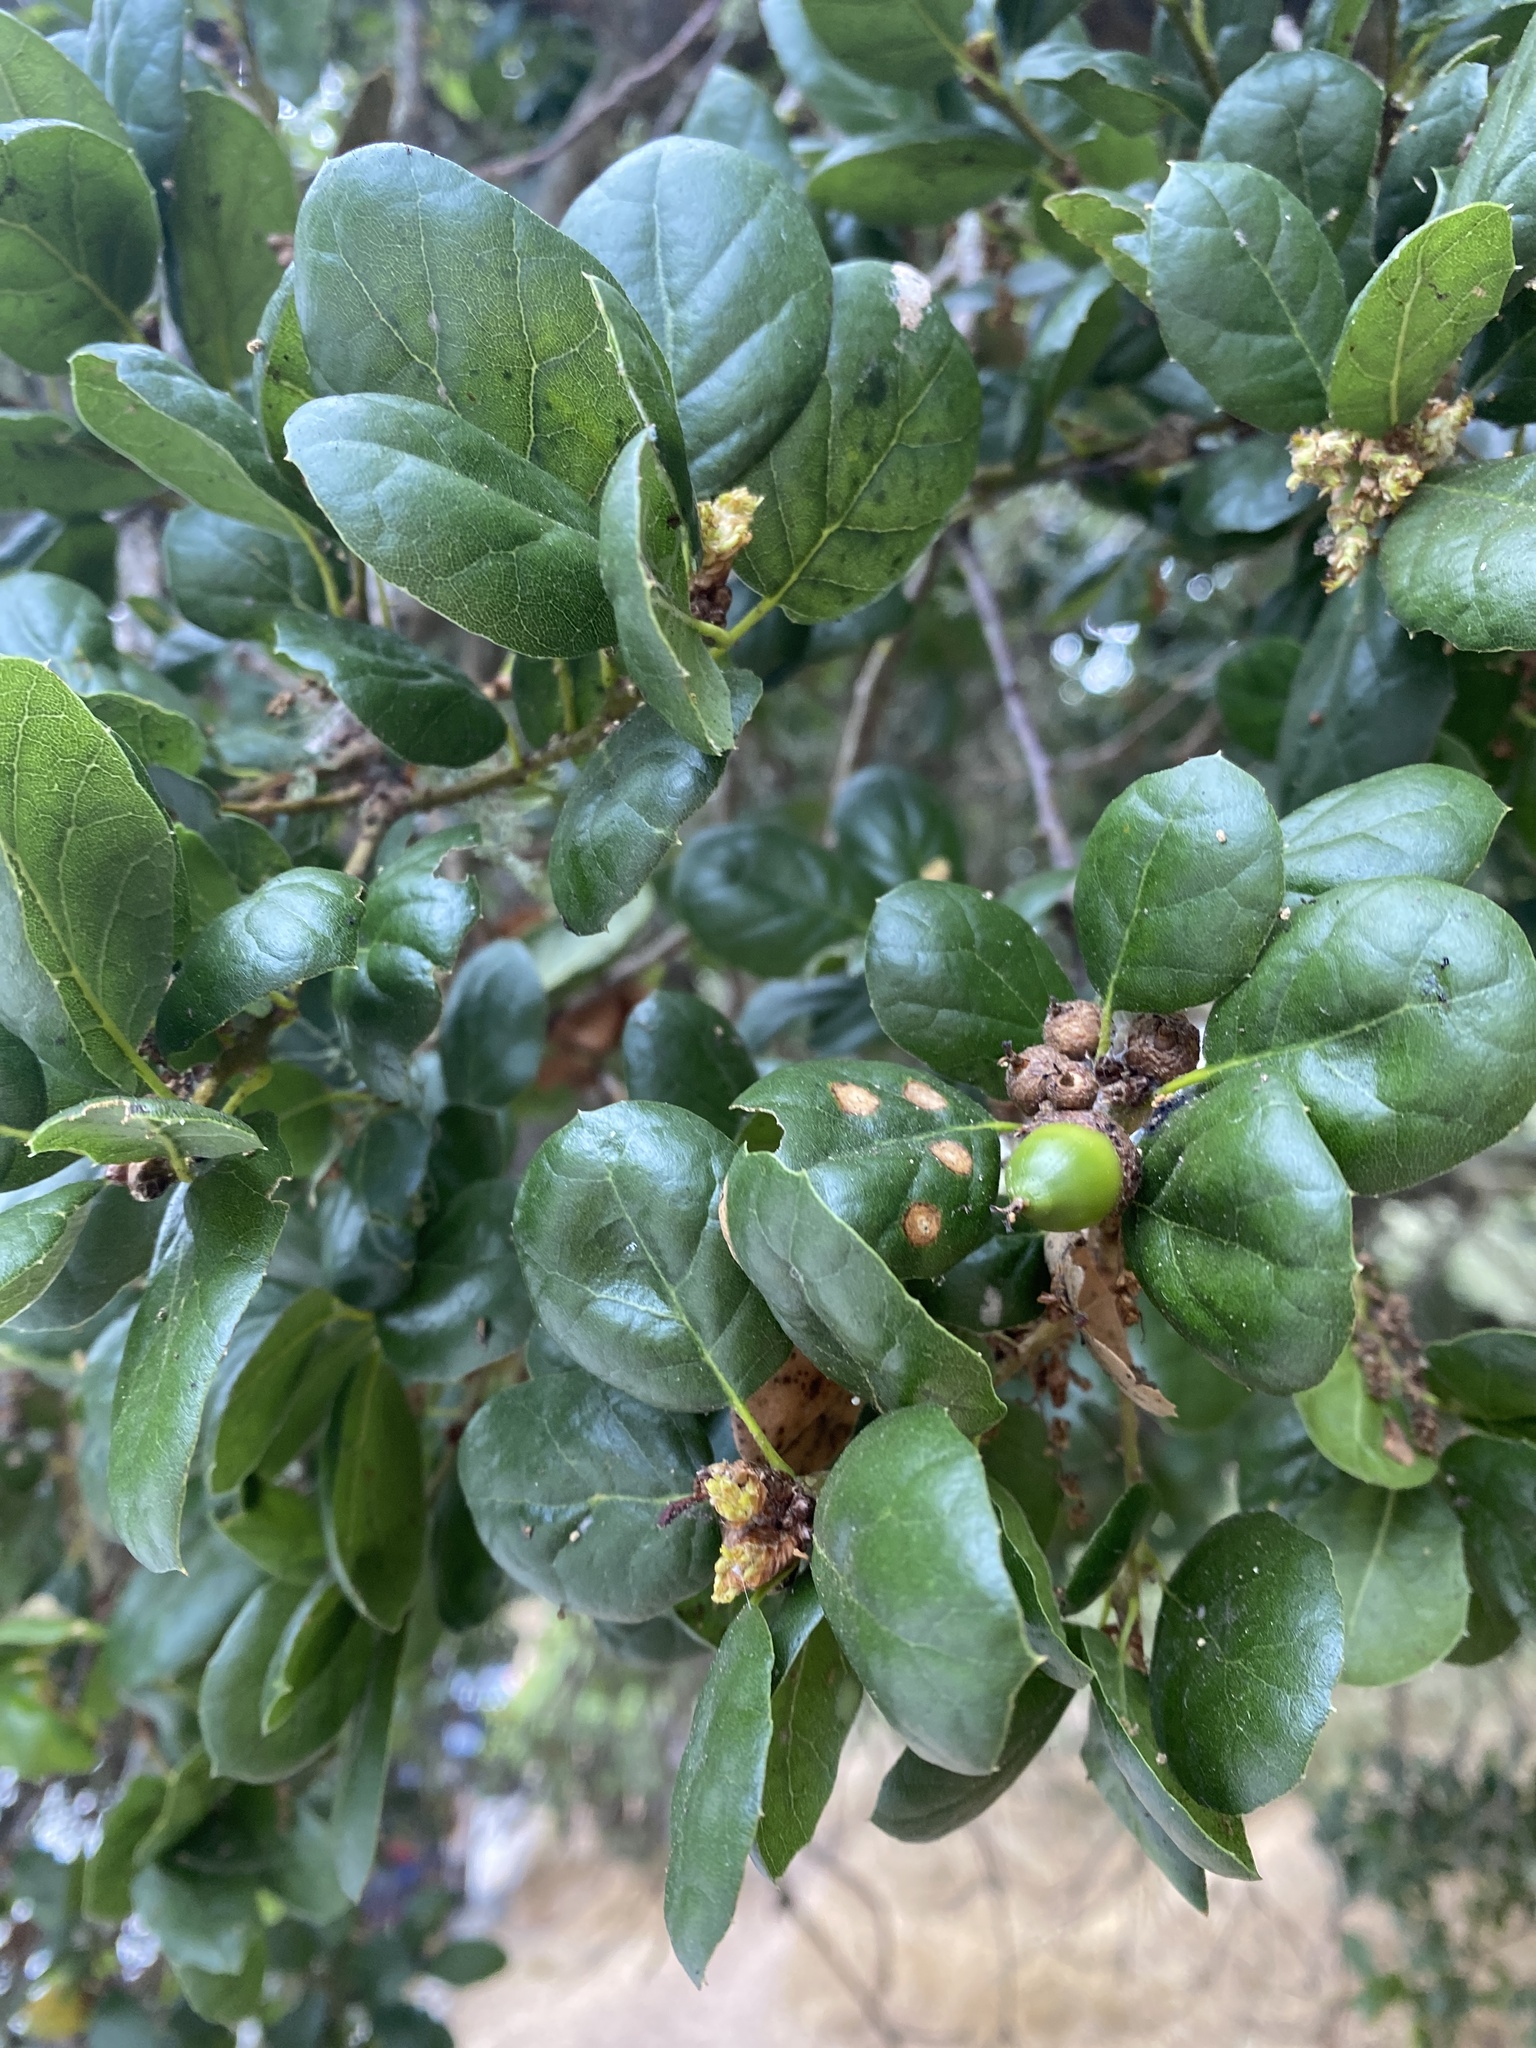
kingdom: Plantae
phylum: Tracheophyta
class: Magnoliopsida
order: Fagales
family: Fagaceae
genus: Quercus
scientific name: Quercus agrifolia
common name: California live oak
